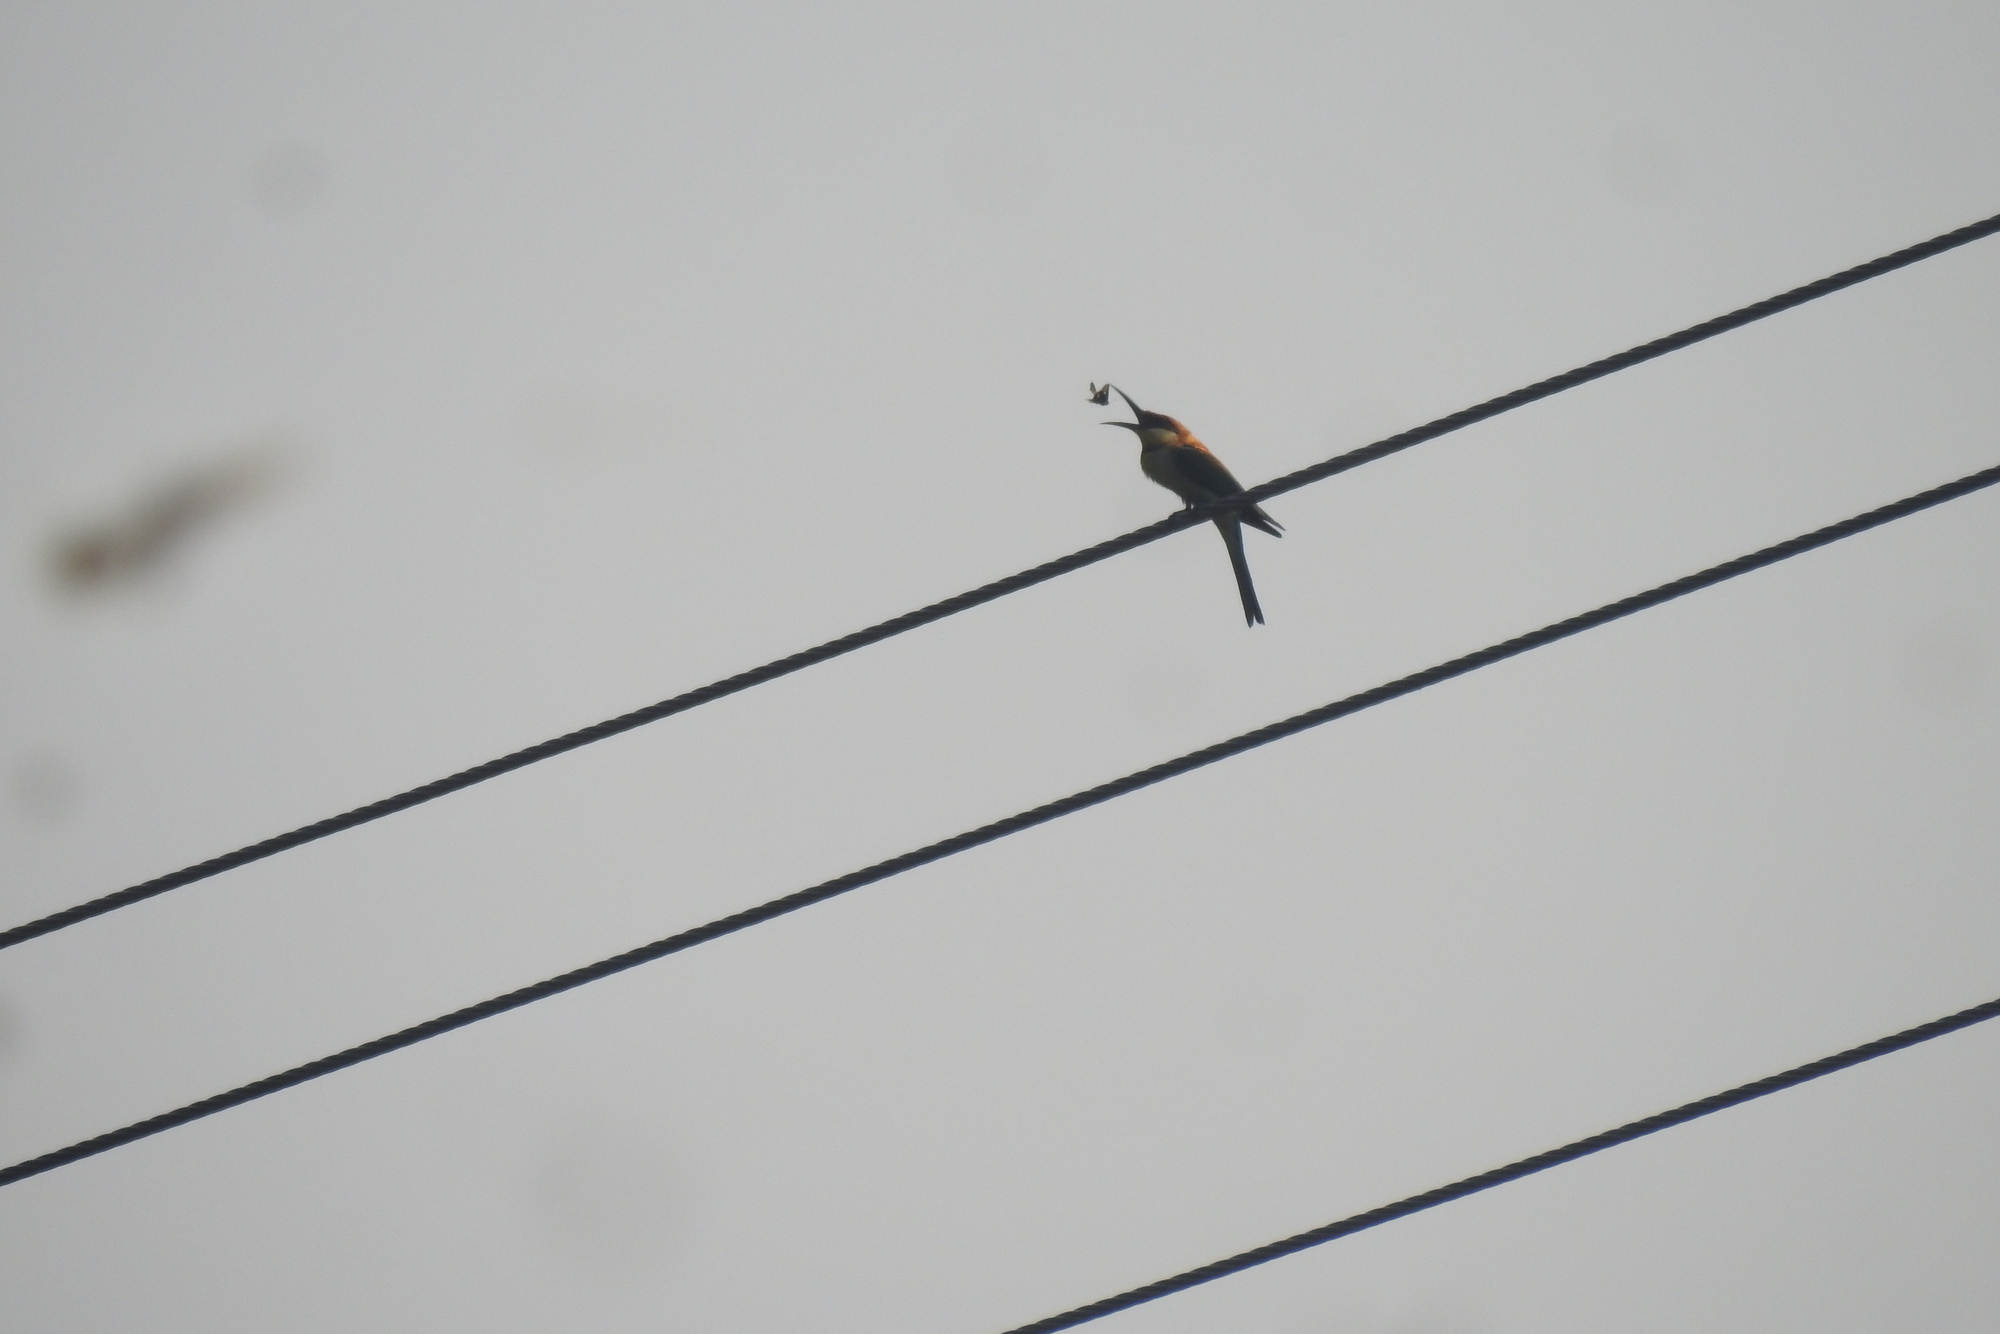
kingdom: Animalia
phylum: Chordata
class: Aves
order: Coraciiformes
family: Meropidae
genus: Merops
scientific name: Merops leschenaulti
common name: Chestnut-headed bee-eater
